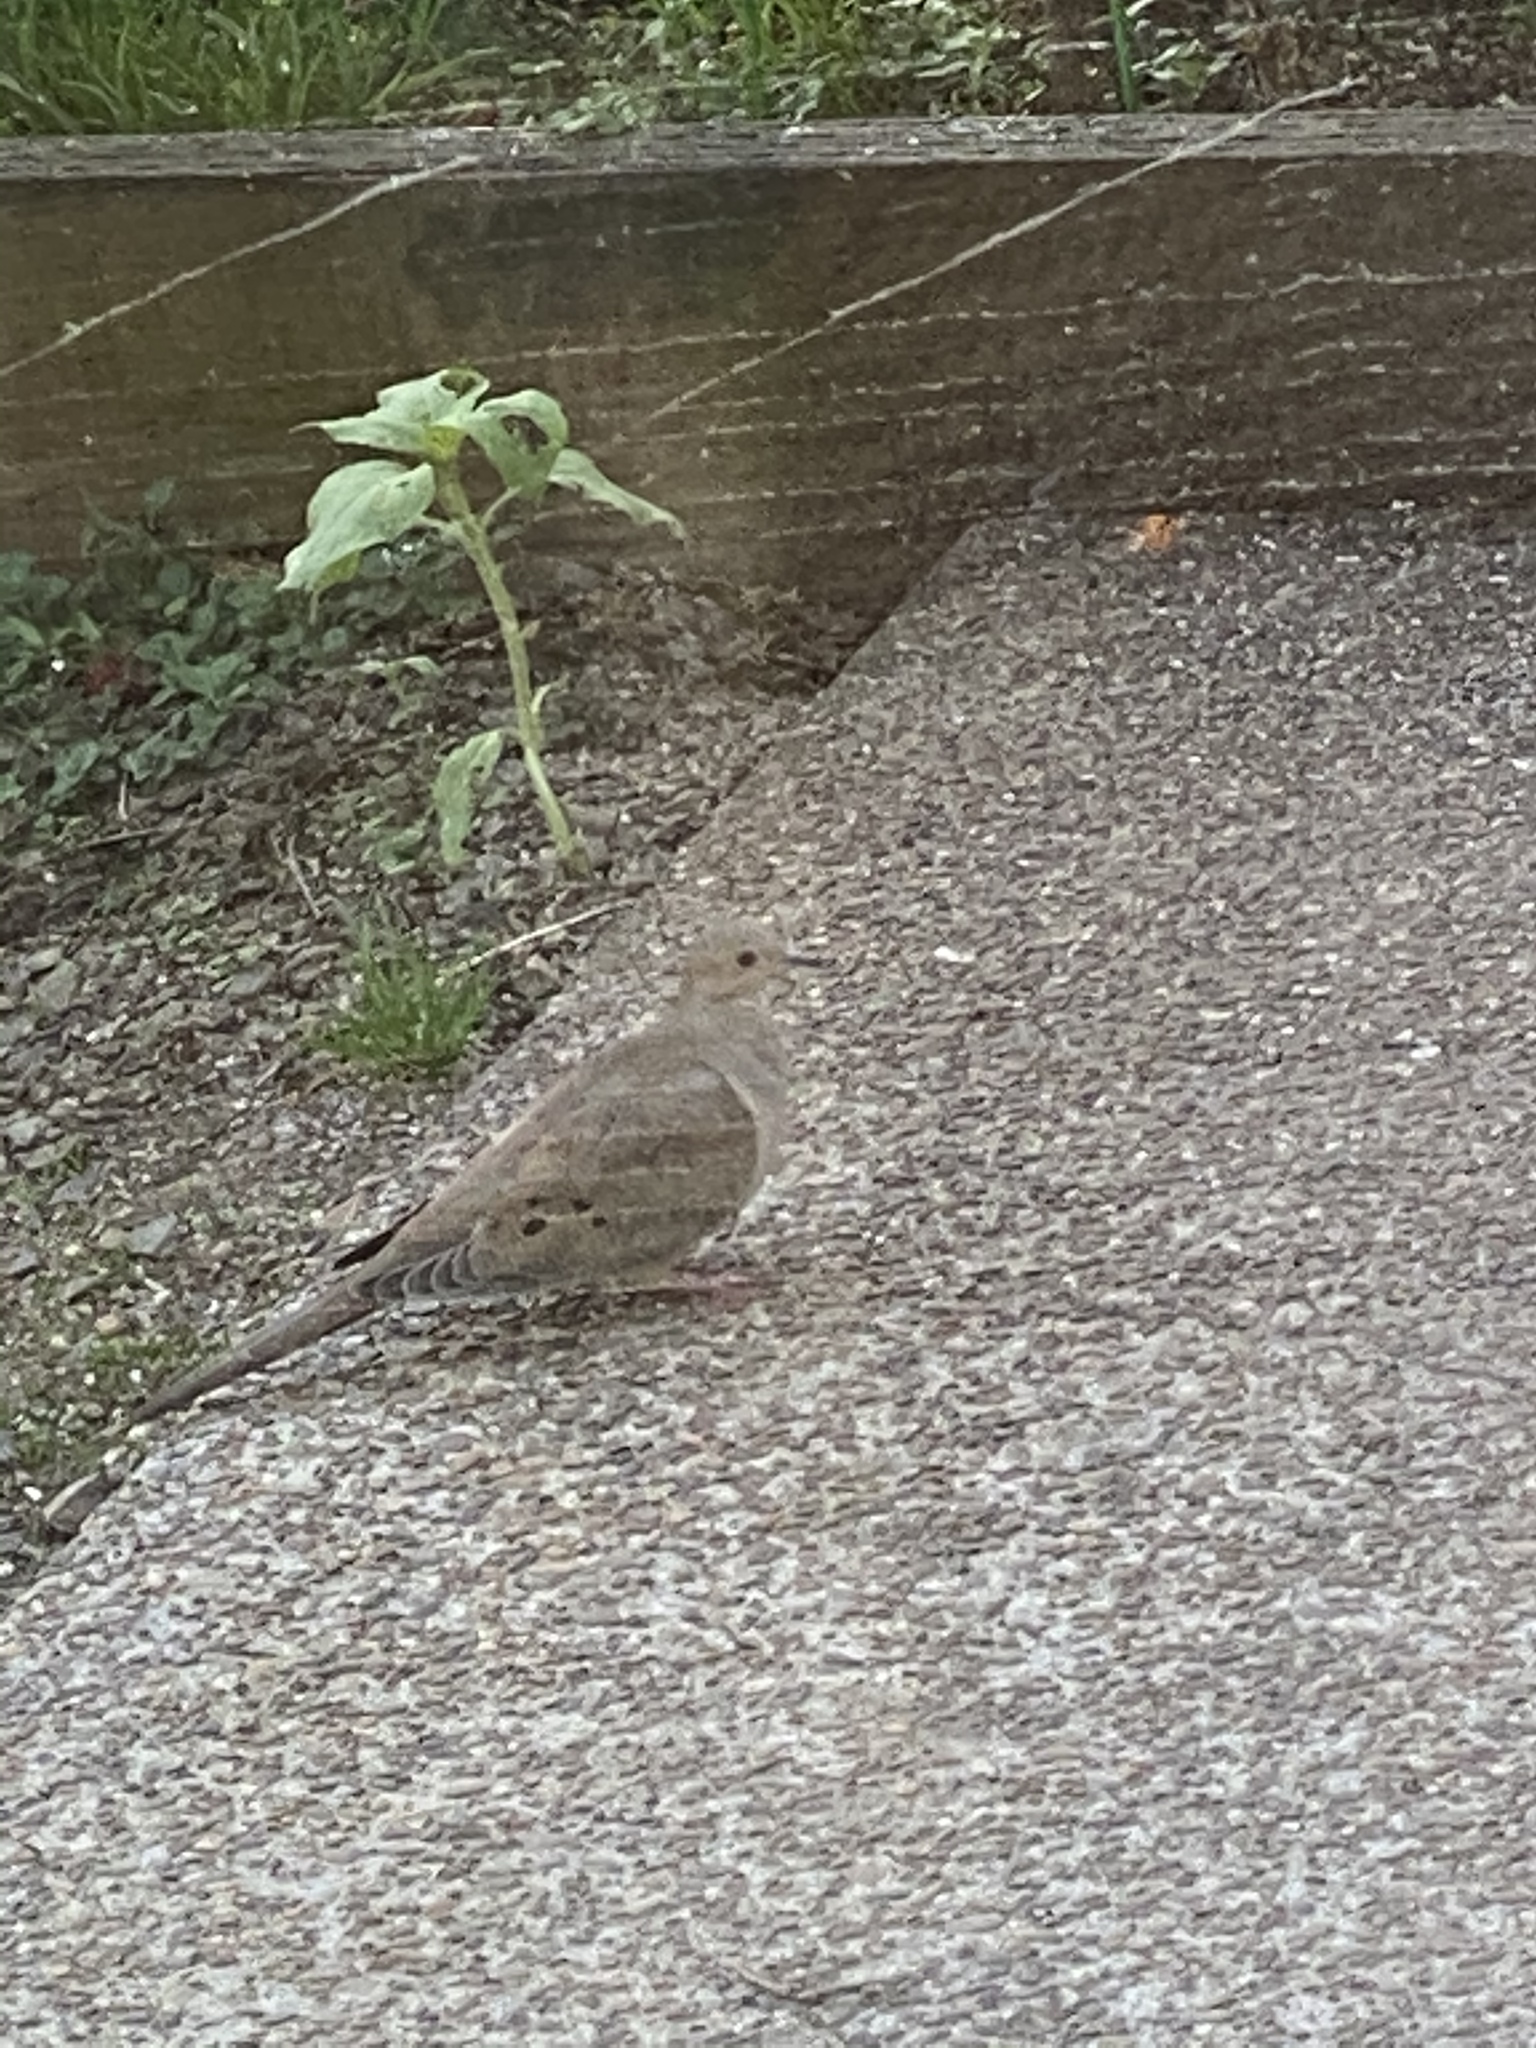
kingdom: Animalia
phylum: Chordata
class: Aves
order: Columbiformes
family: Columbidae
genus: Zenaida
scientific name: Zenaida macroura
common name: Mourning dove
